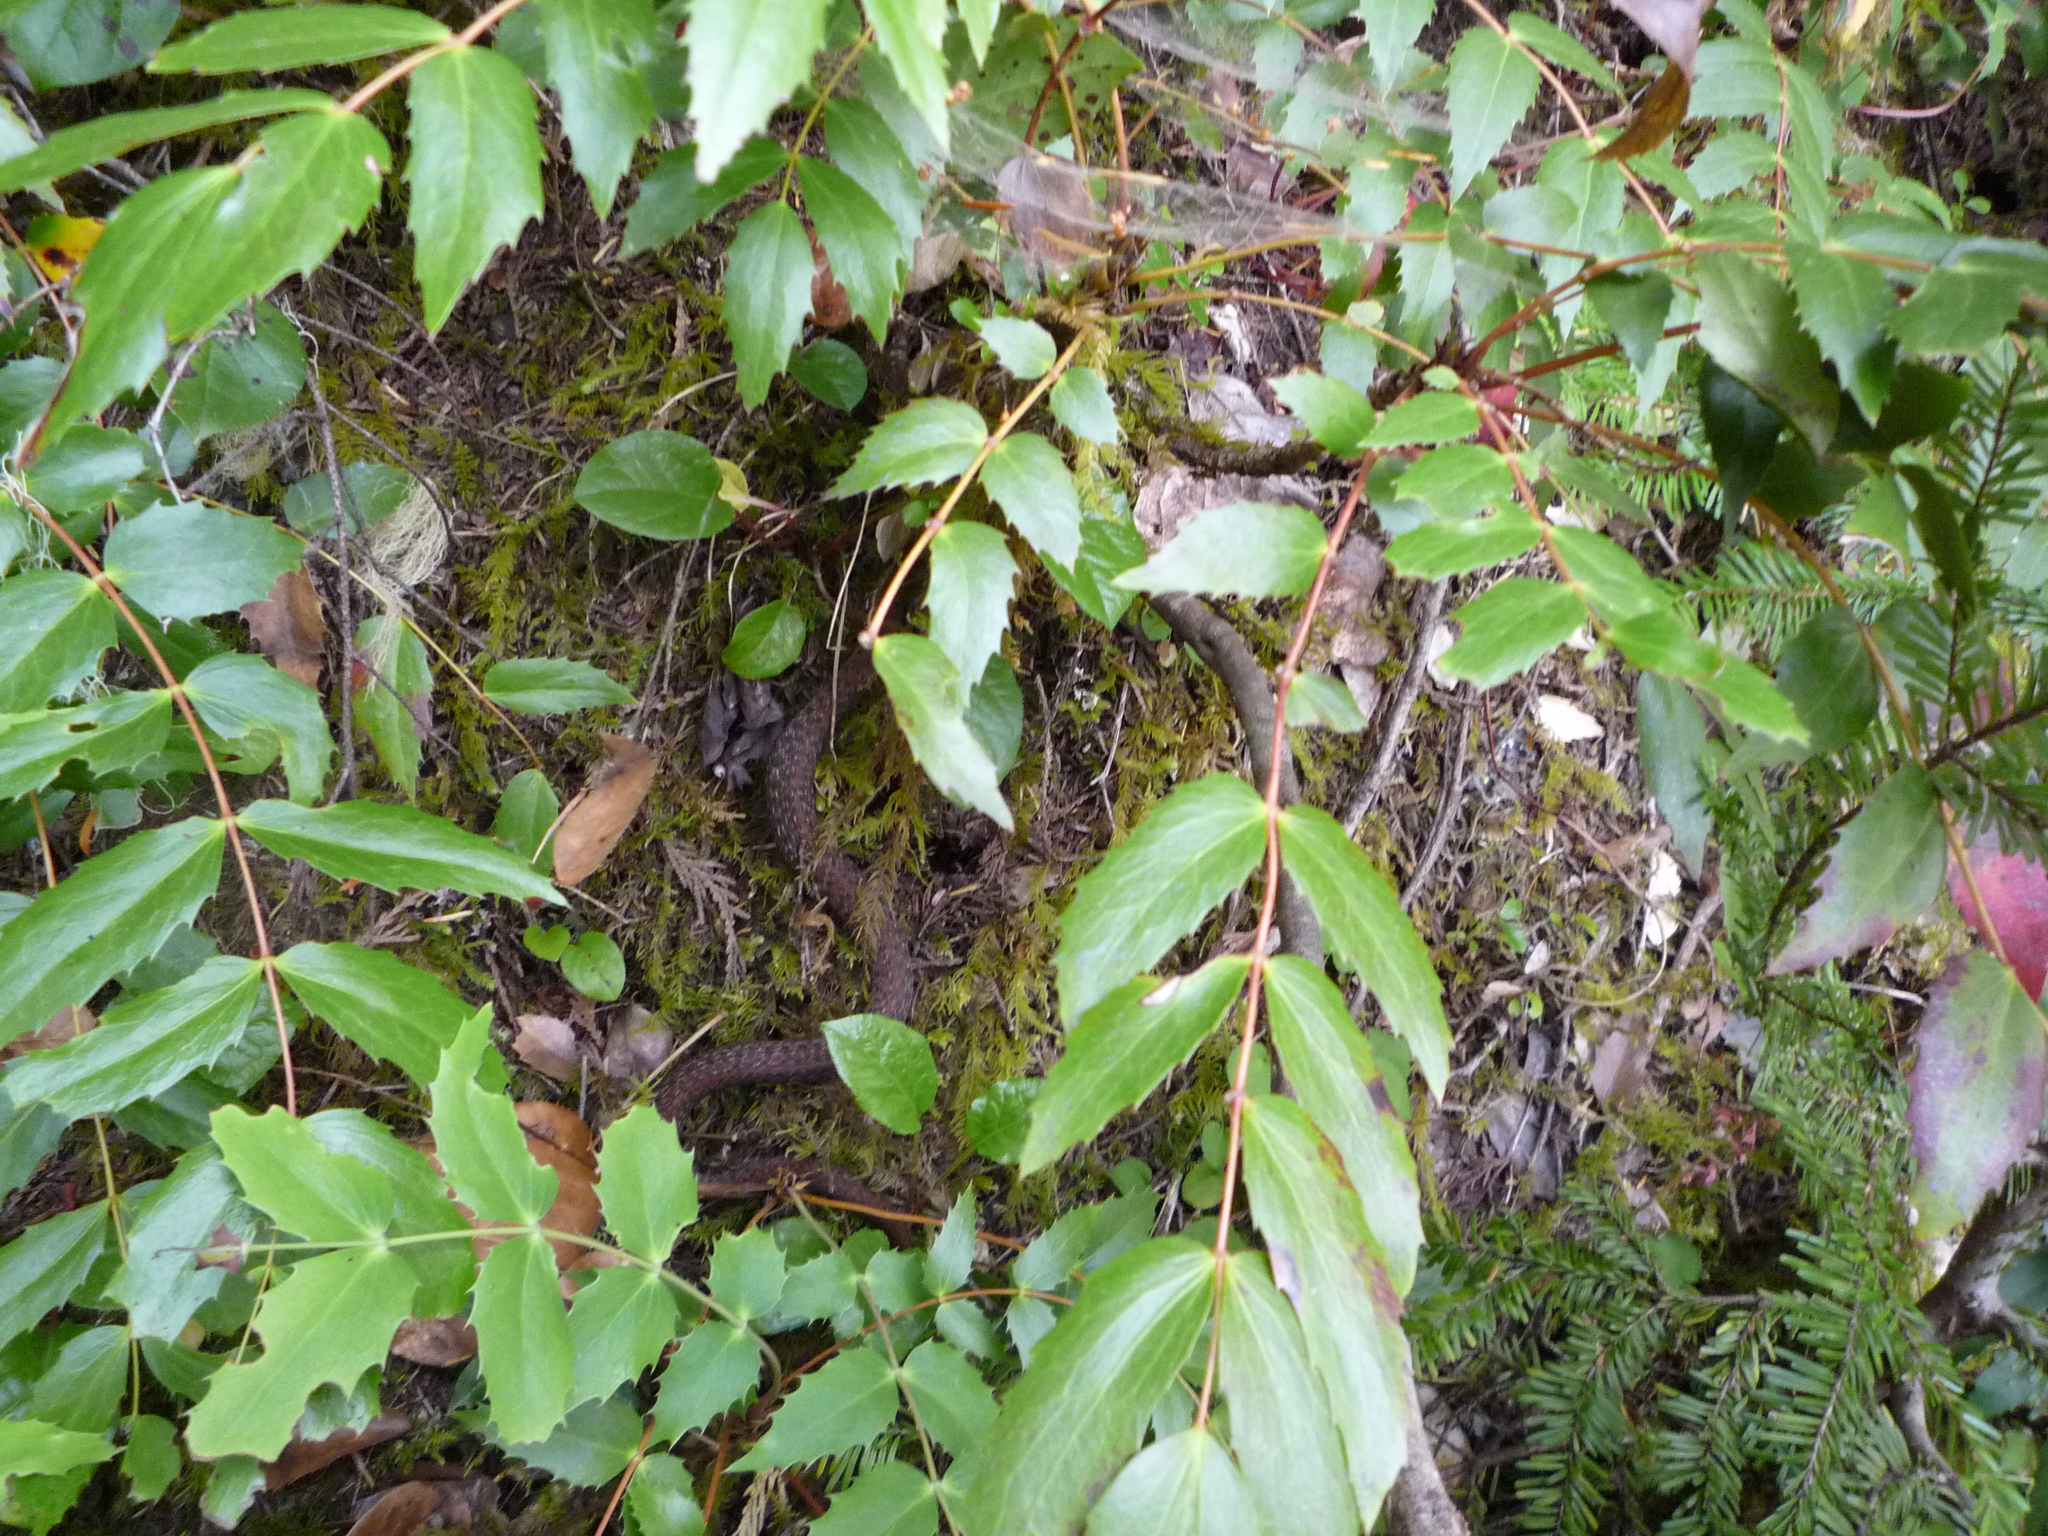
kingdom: Animalia
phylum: Chordata
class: Squamata
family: Colubridae
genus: Thamnophis
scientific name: Thamnophis ordinoides
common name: Northwestern garter snake
